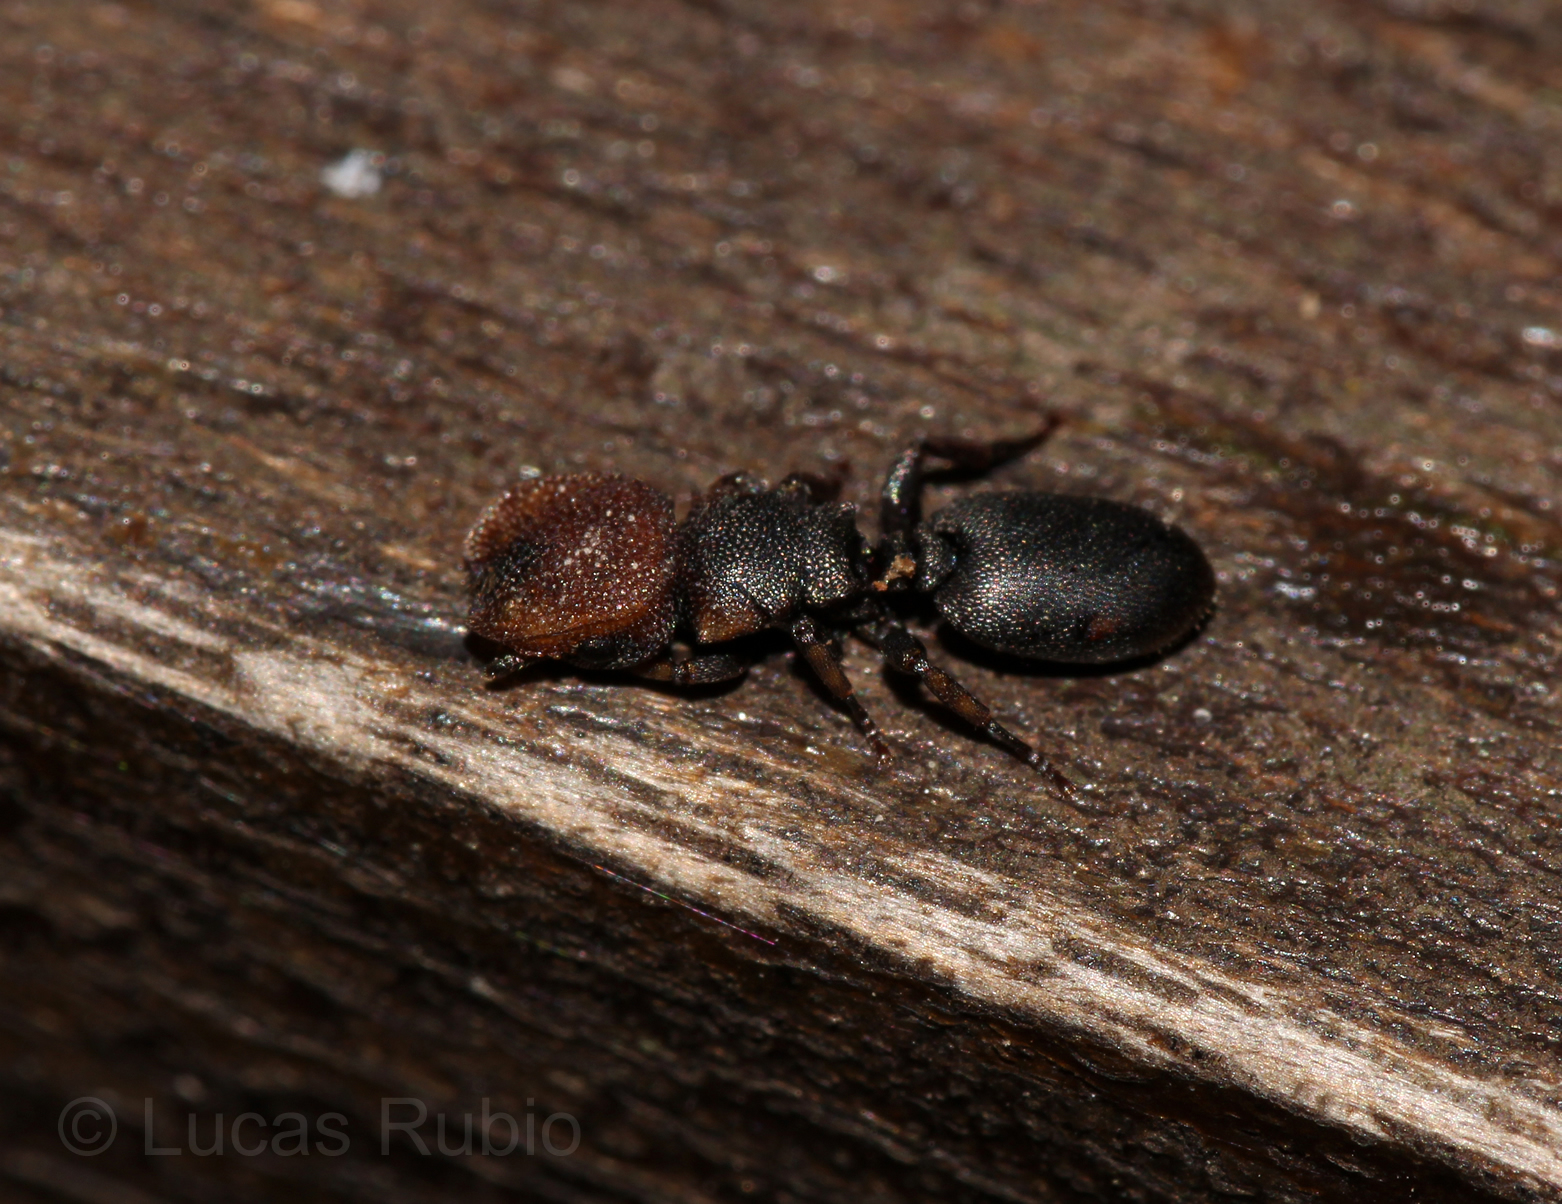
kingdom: Animalia
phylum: Arthropoda
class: Insecta
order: Hymenoptera
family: Formicidae
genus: Cephalotes
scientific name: Cephalotes jheringi
